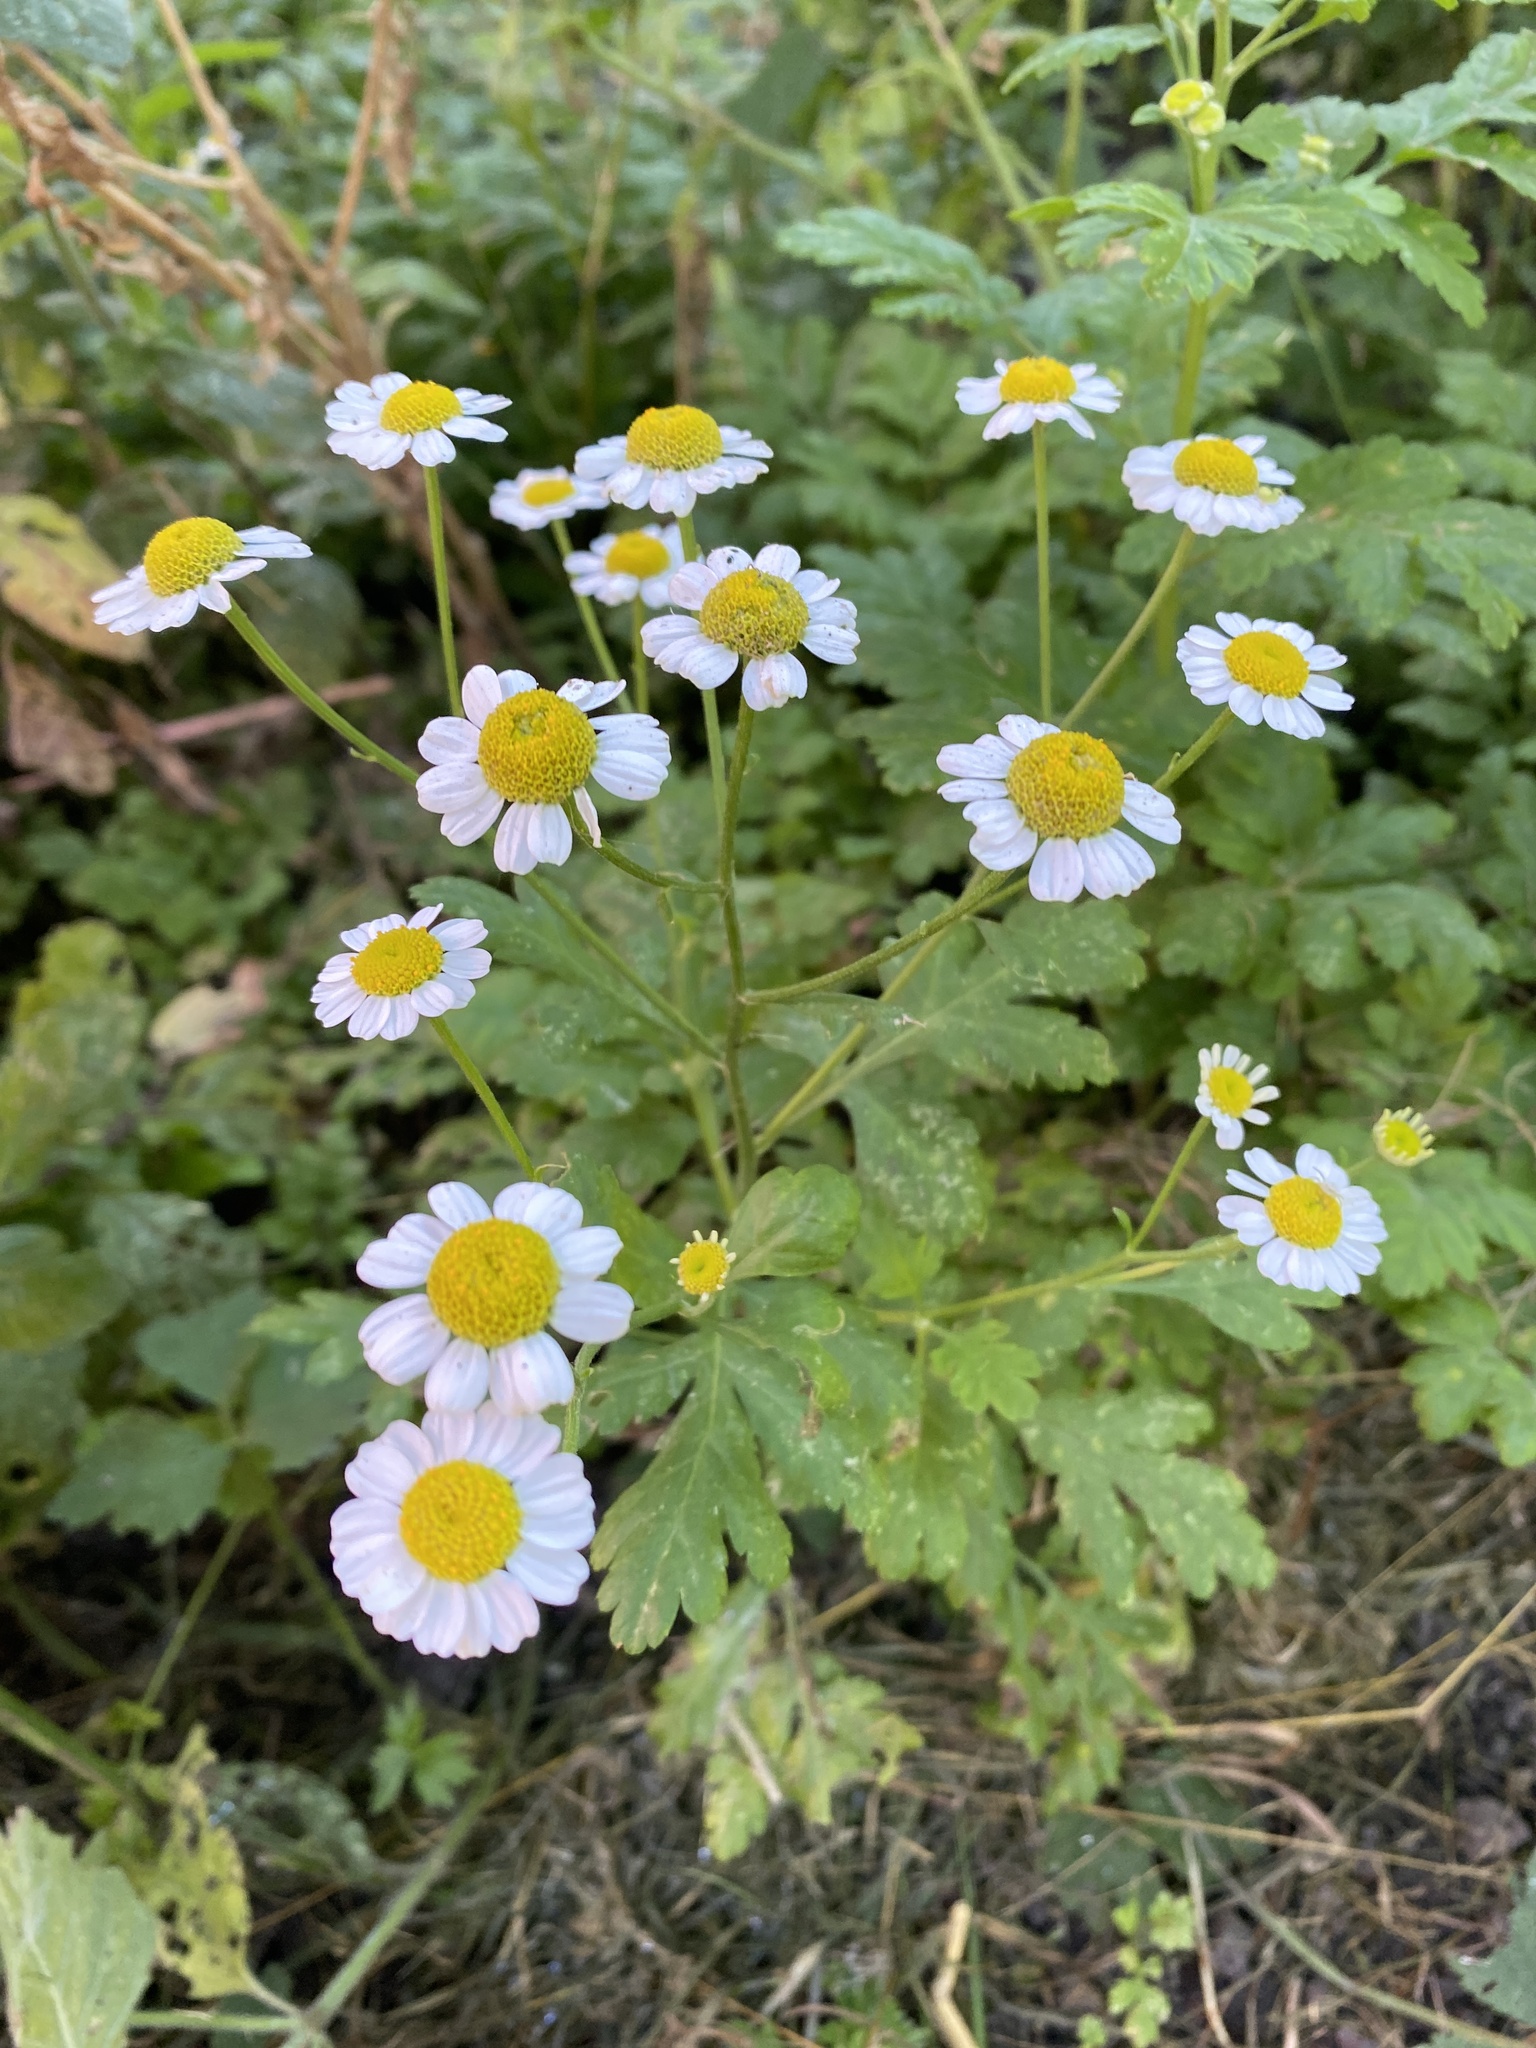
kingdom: Plantae
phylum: Tracheophyta
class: Magnoliopsida
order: Asterales
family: Asteraceae
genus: Tanacetum
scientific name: Tanacetum parthenium
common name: Feverfew
